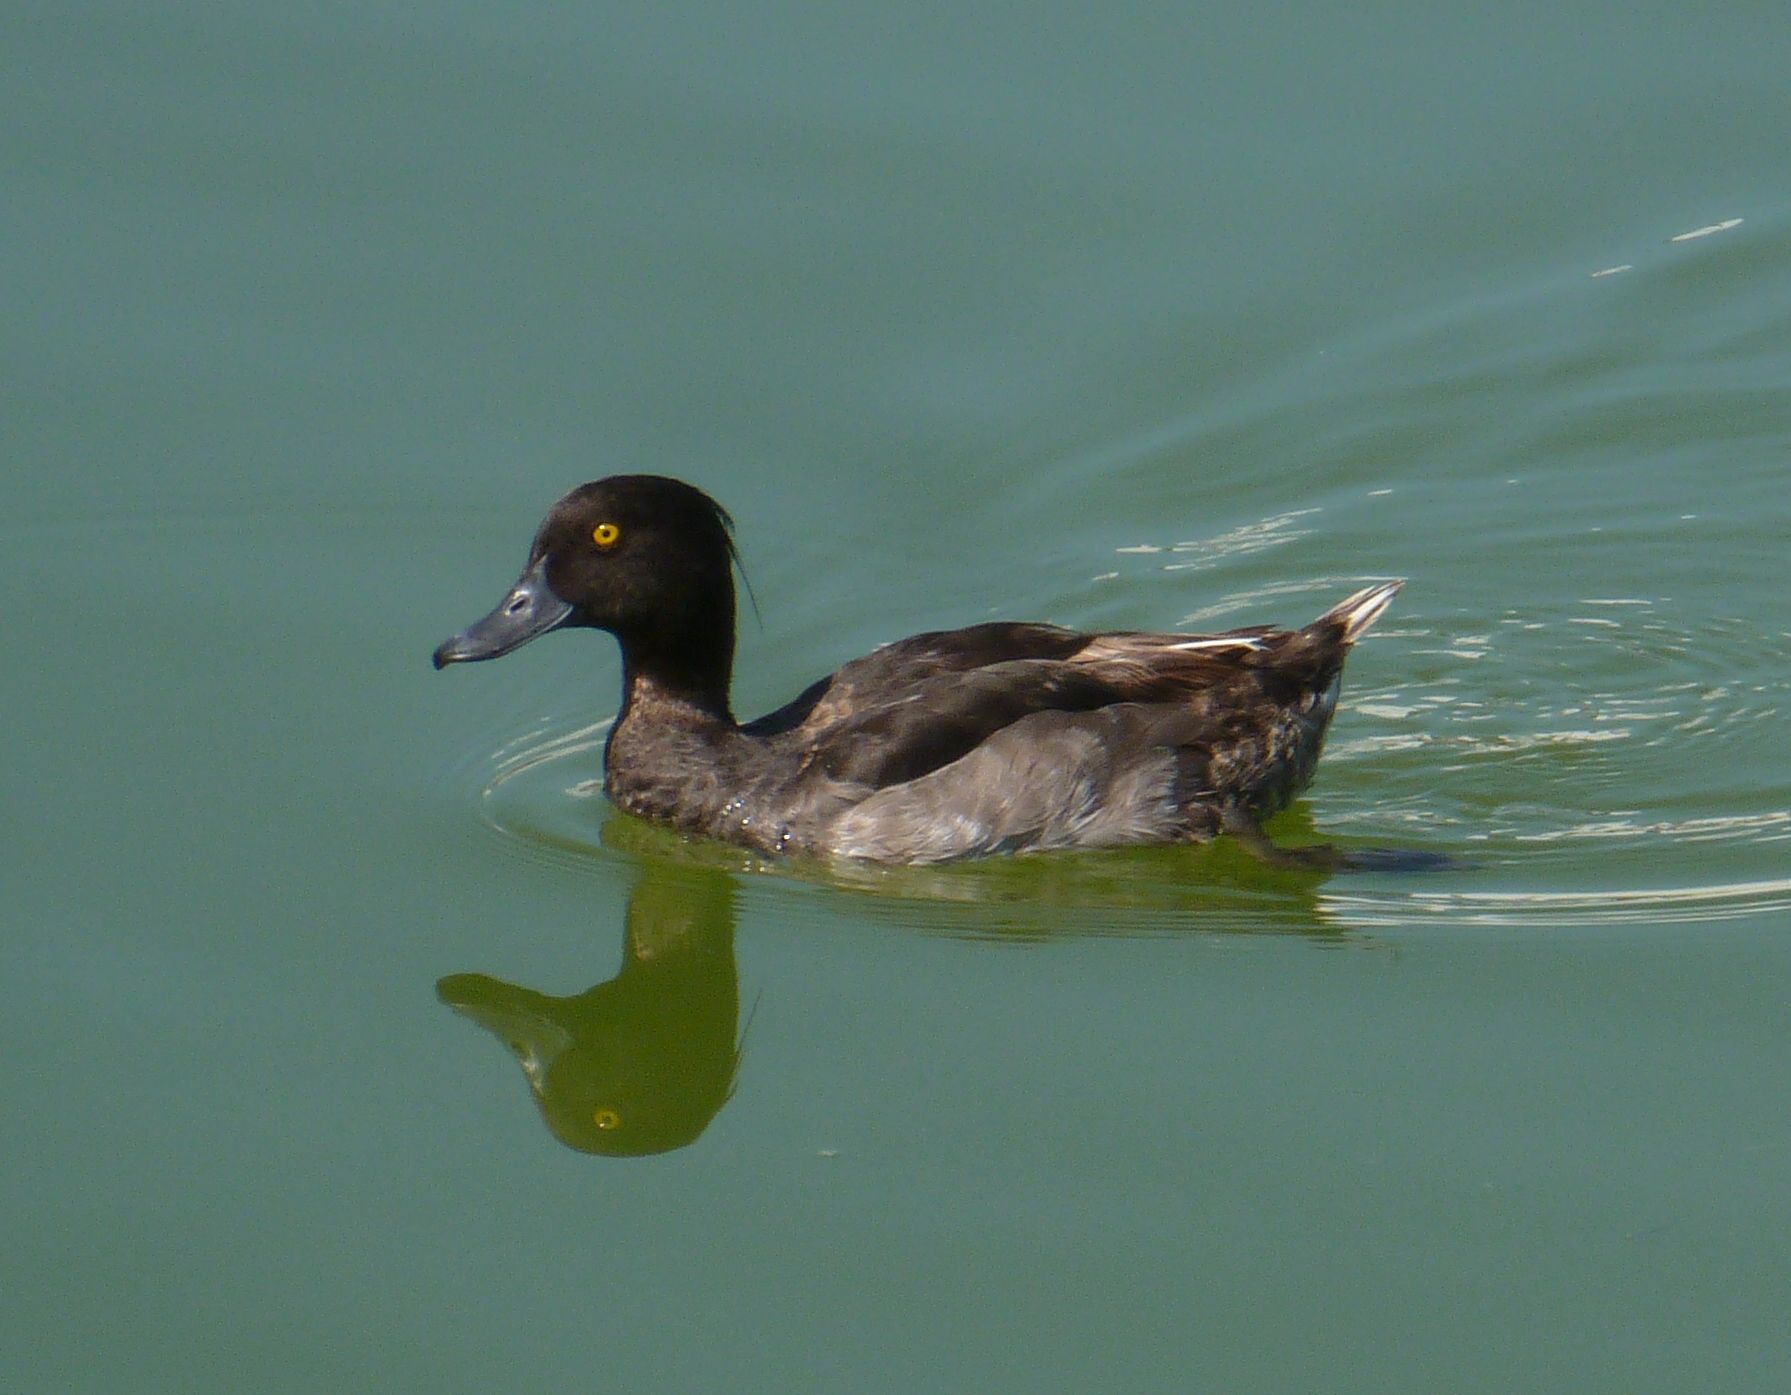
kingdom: Animalia
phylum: Chordata
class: Aves
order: Anseriformes
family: Anatidae
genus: Aythya
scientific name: Aythya fuligula
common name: Tufted duck
